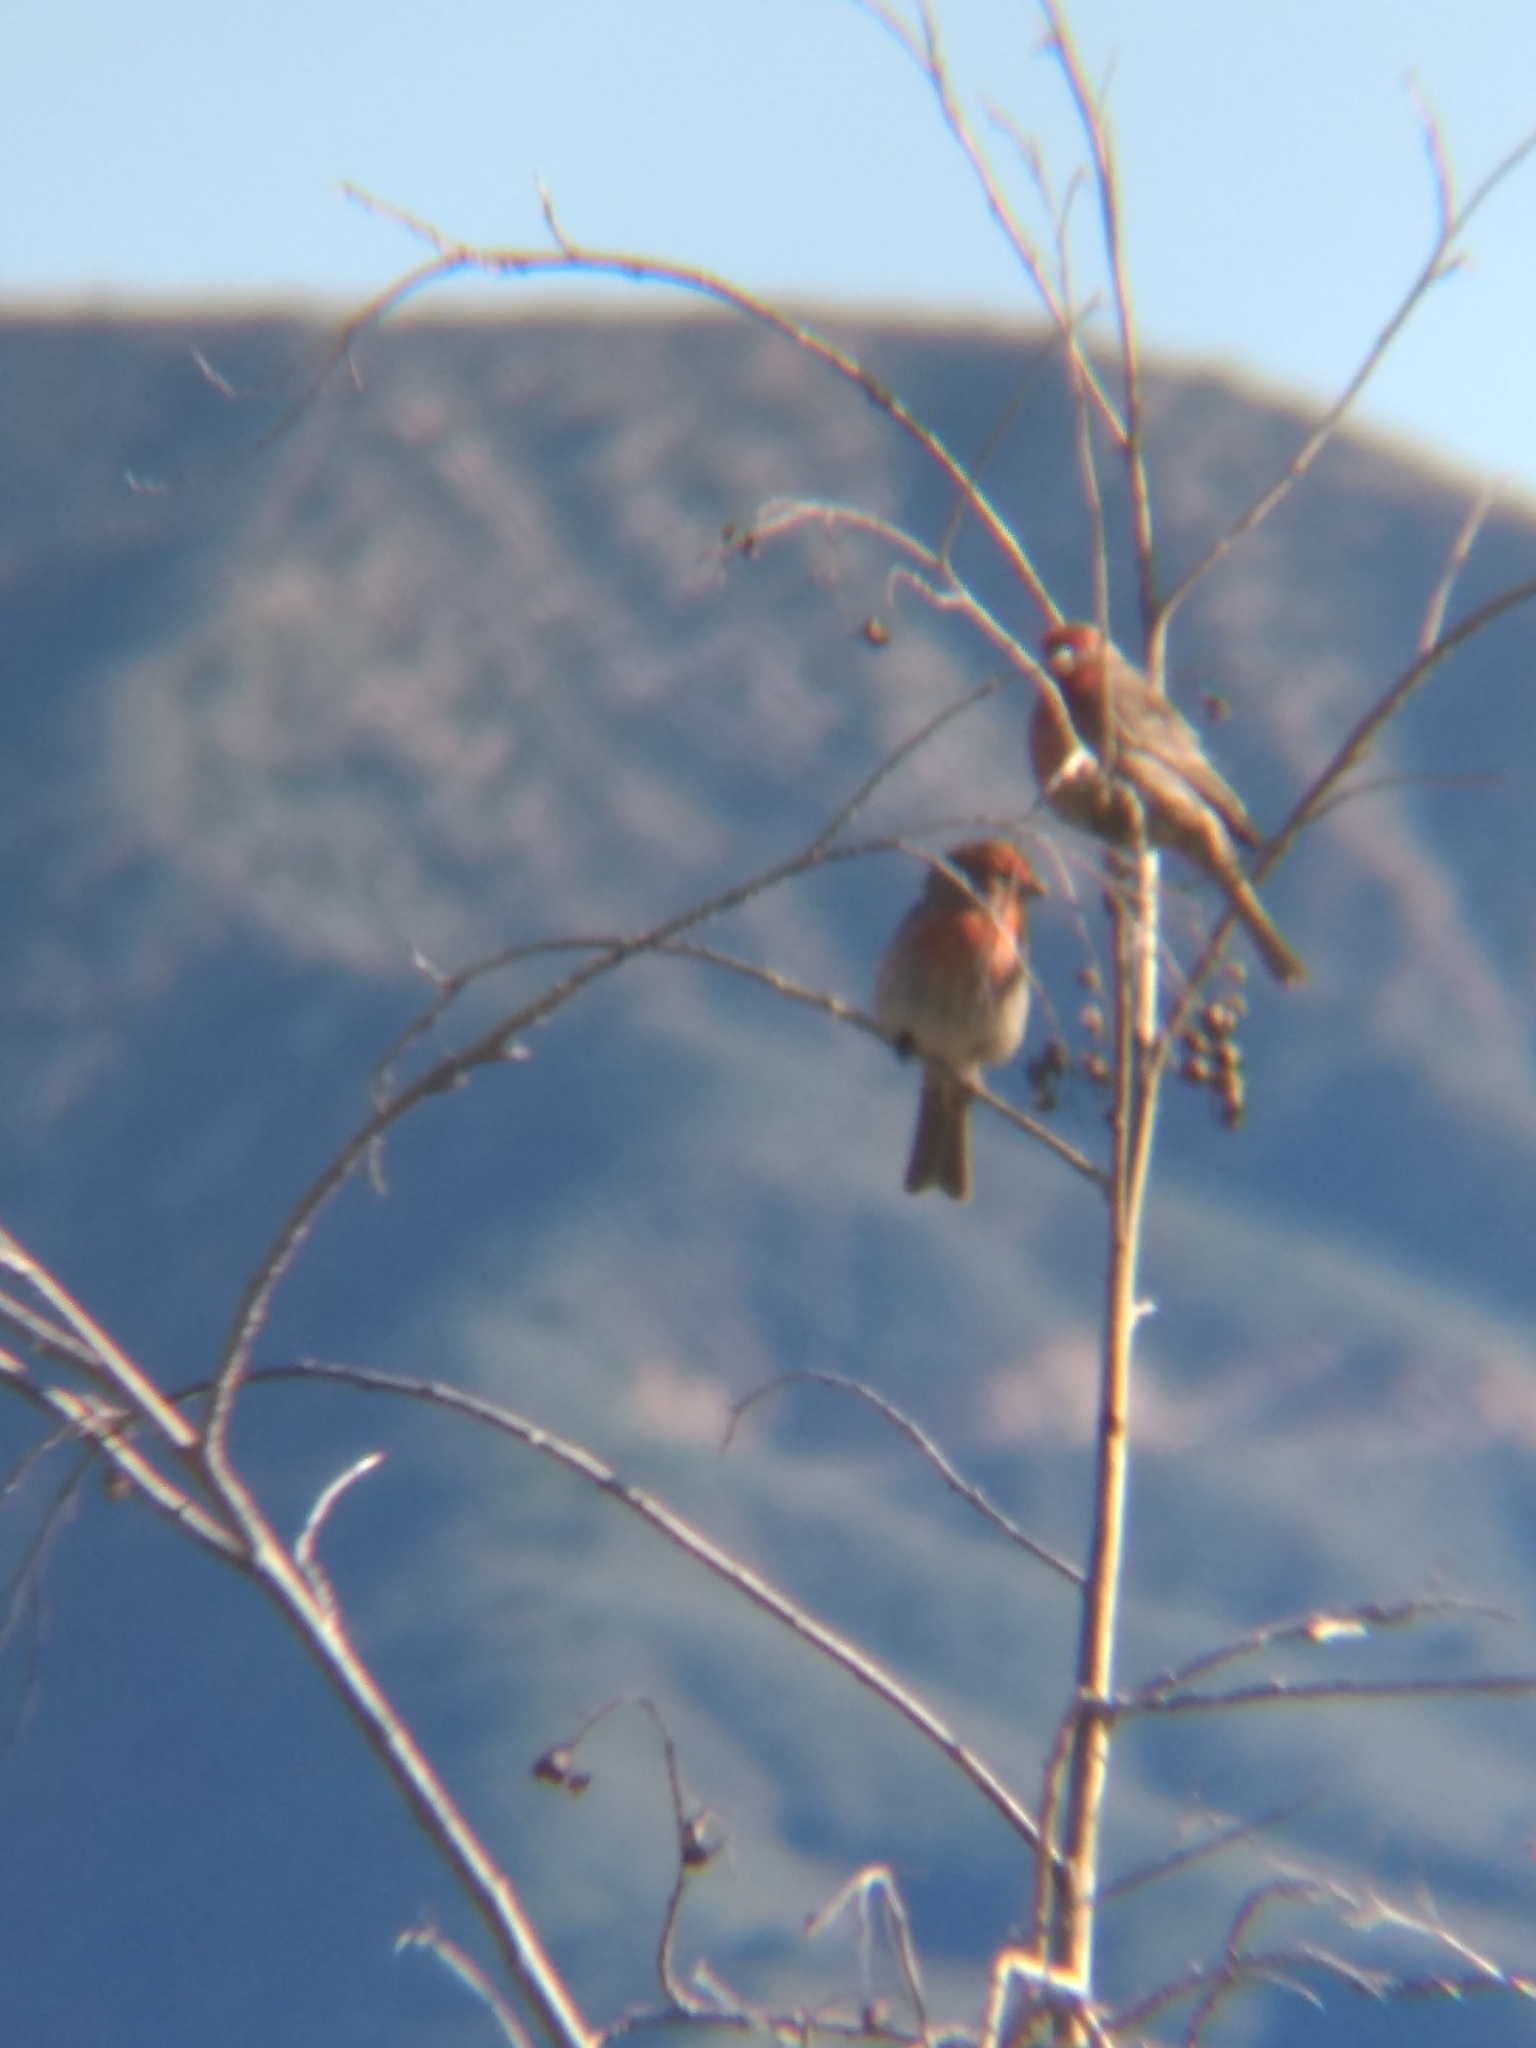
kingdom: Animalia
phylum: Chordata
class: Aves
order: Passeriformes
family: Fringillidae
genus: Haemorhous
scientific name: Haemorhous mexicanus
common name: House finch
